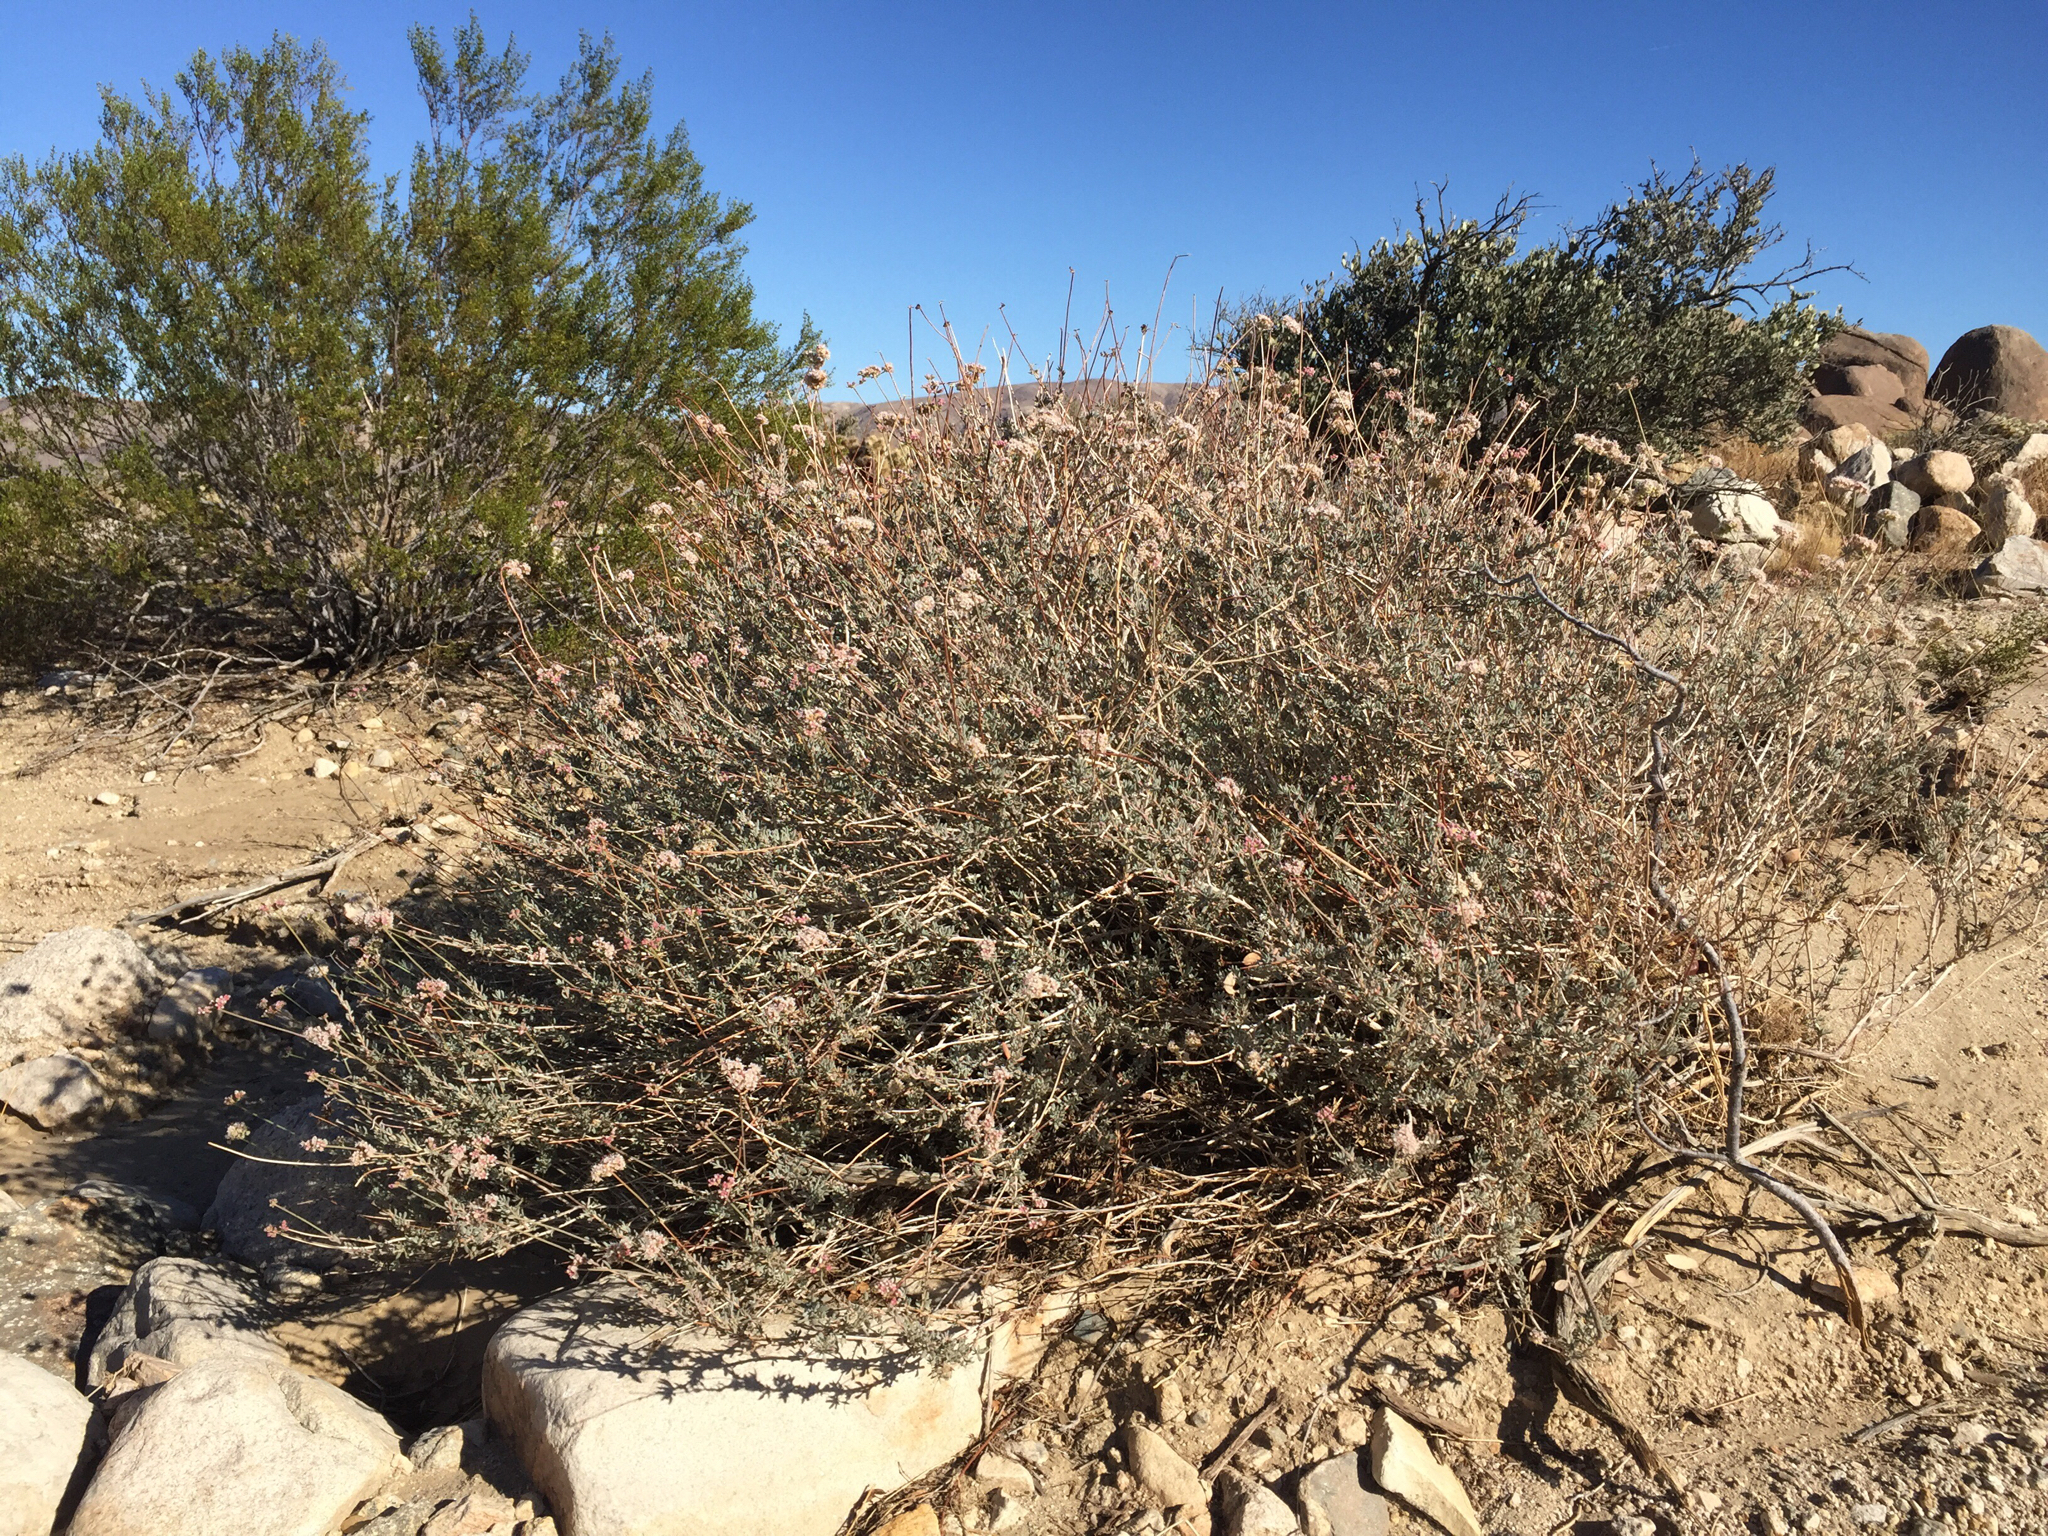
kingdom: Plantae
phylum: Tracheophyta
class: Magnoliopsida
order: Caryophyllales
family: Polygonaceae
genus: Eriogonum
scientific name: Eriogonum fasciculatum
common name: California wild buckwheat
